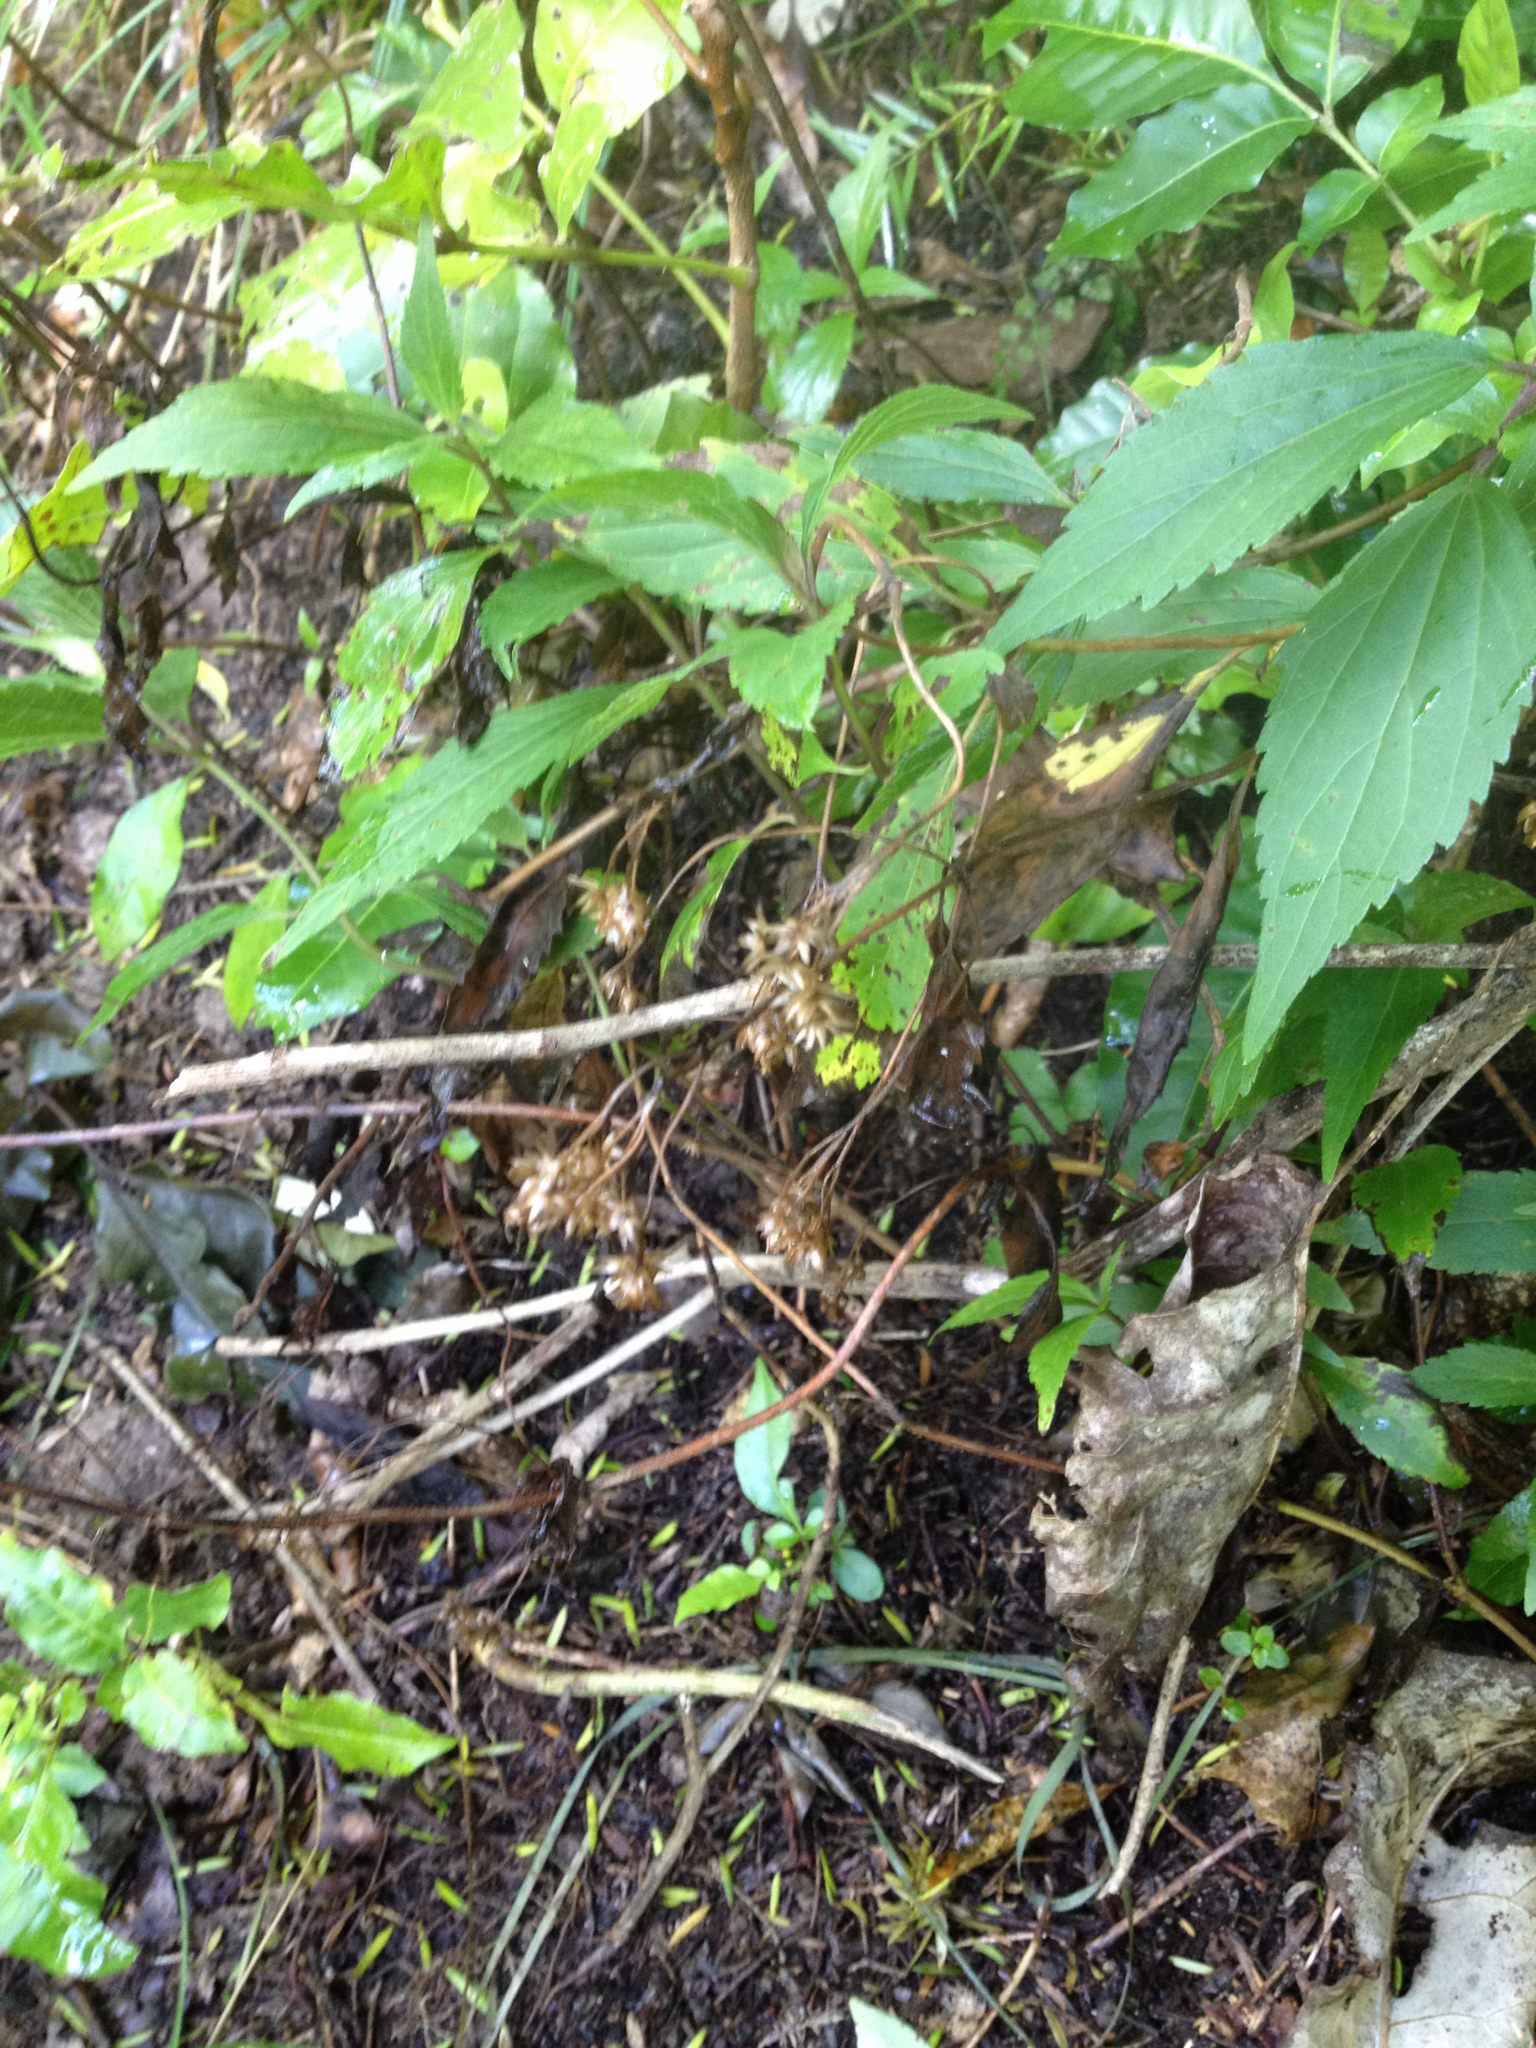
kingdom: Plantae
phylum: Tracheophyta
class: Magnoliopsida
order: Asterales
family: Asteraceae
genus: Ageratina
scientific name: Ageratina riparia
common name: Creeping croftonweed
